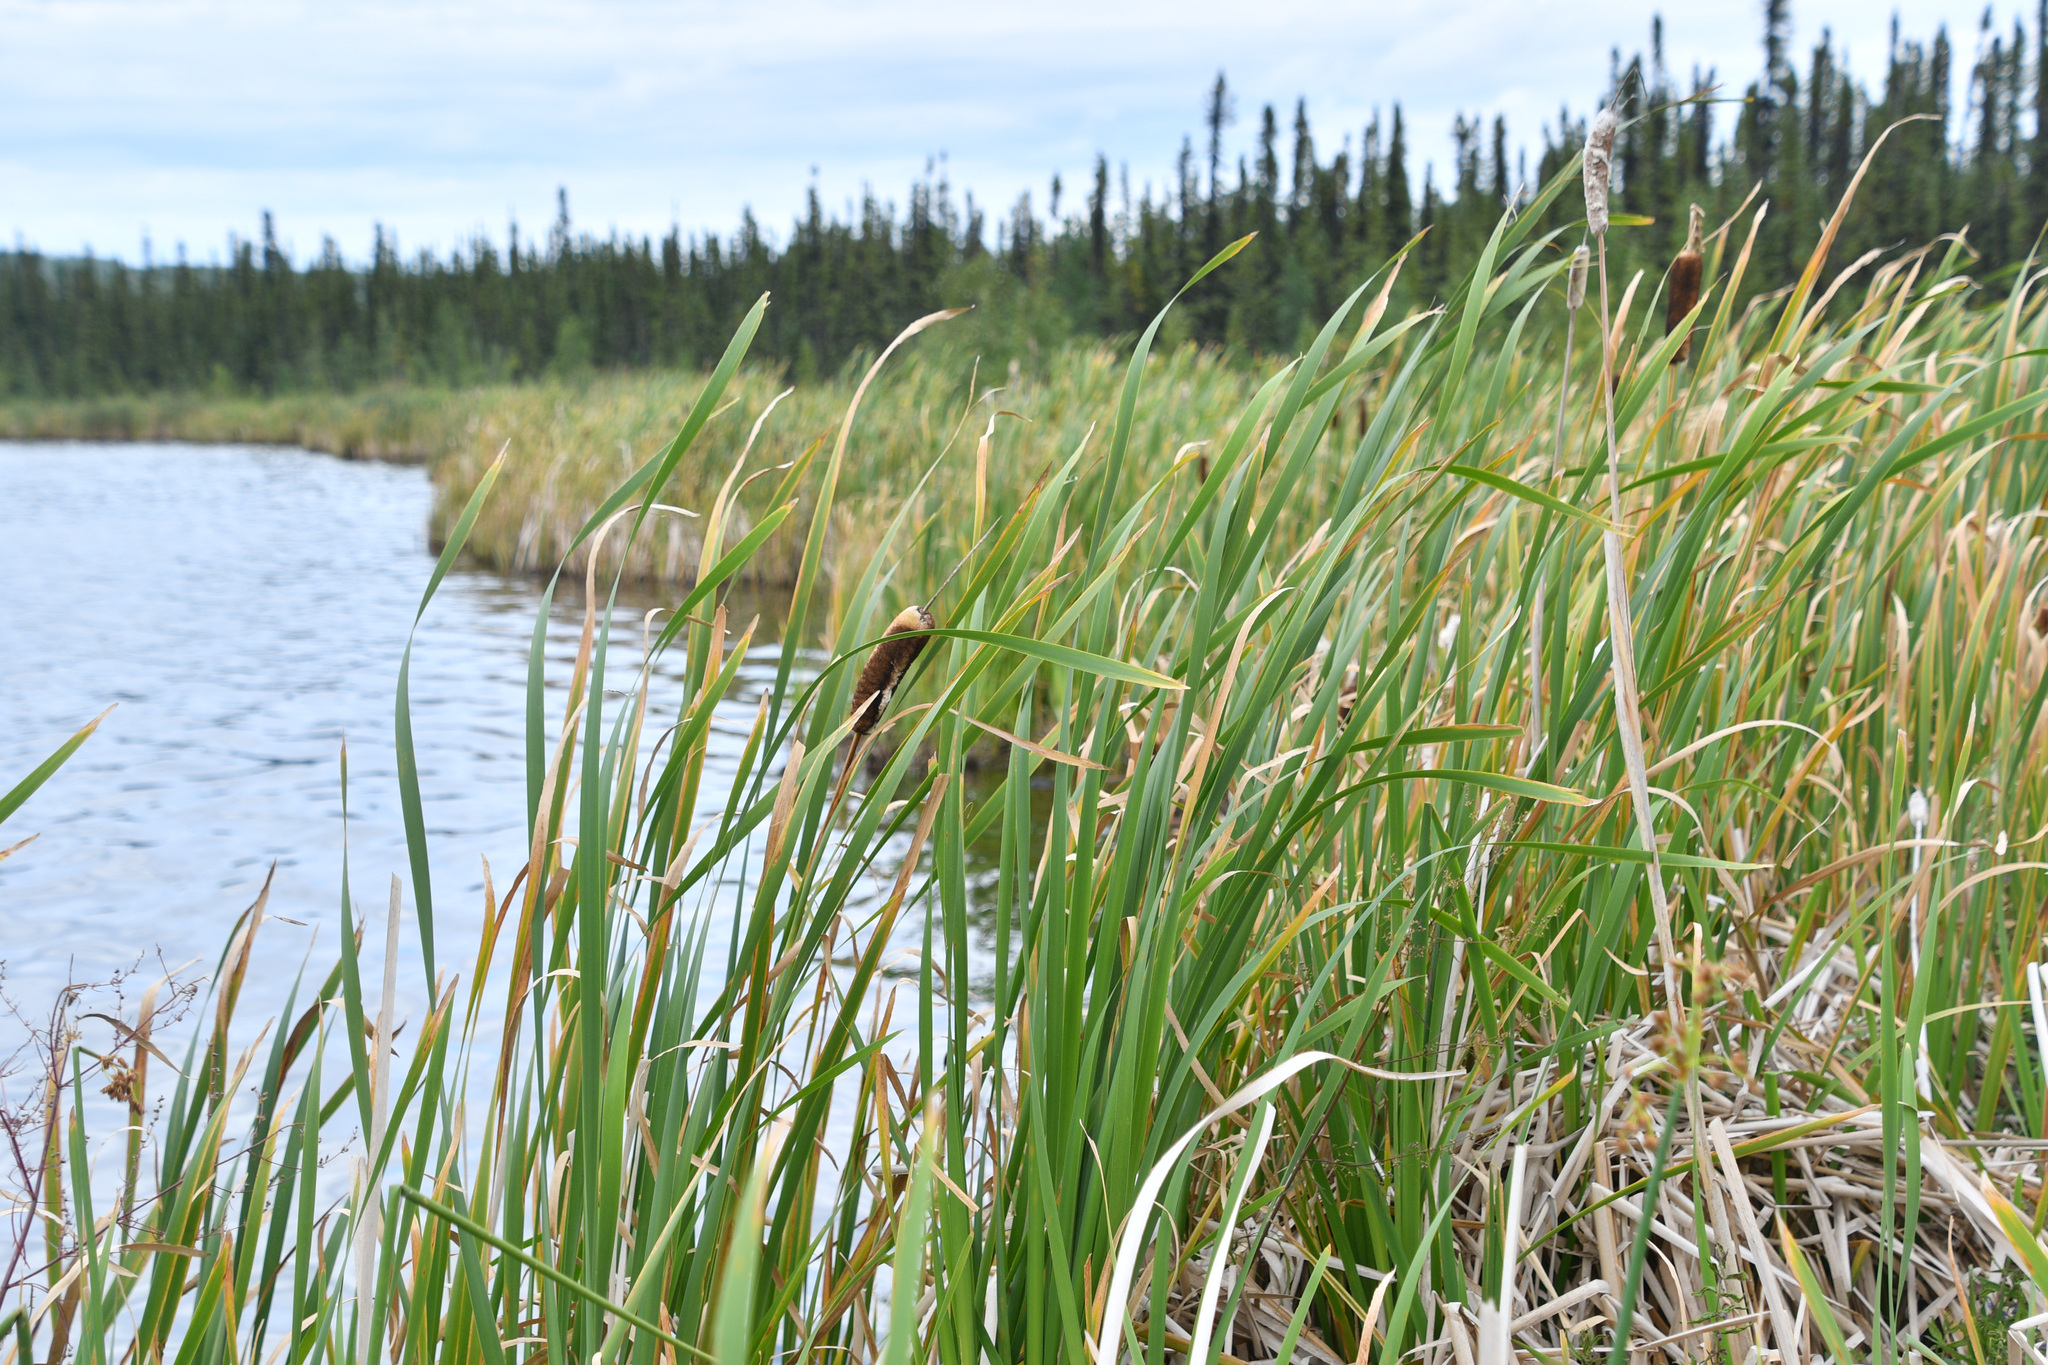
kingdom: Plantae
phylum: Tracheophyta
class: Liliopsida
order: Poales
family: Typhaceae
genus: Typha
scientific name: Typha latifolia
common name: Broadleaf cattail
